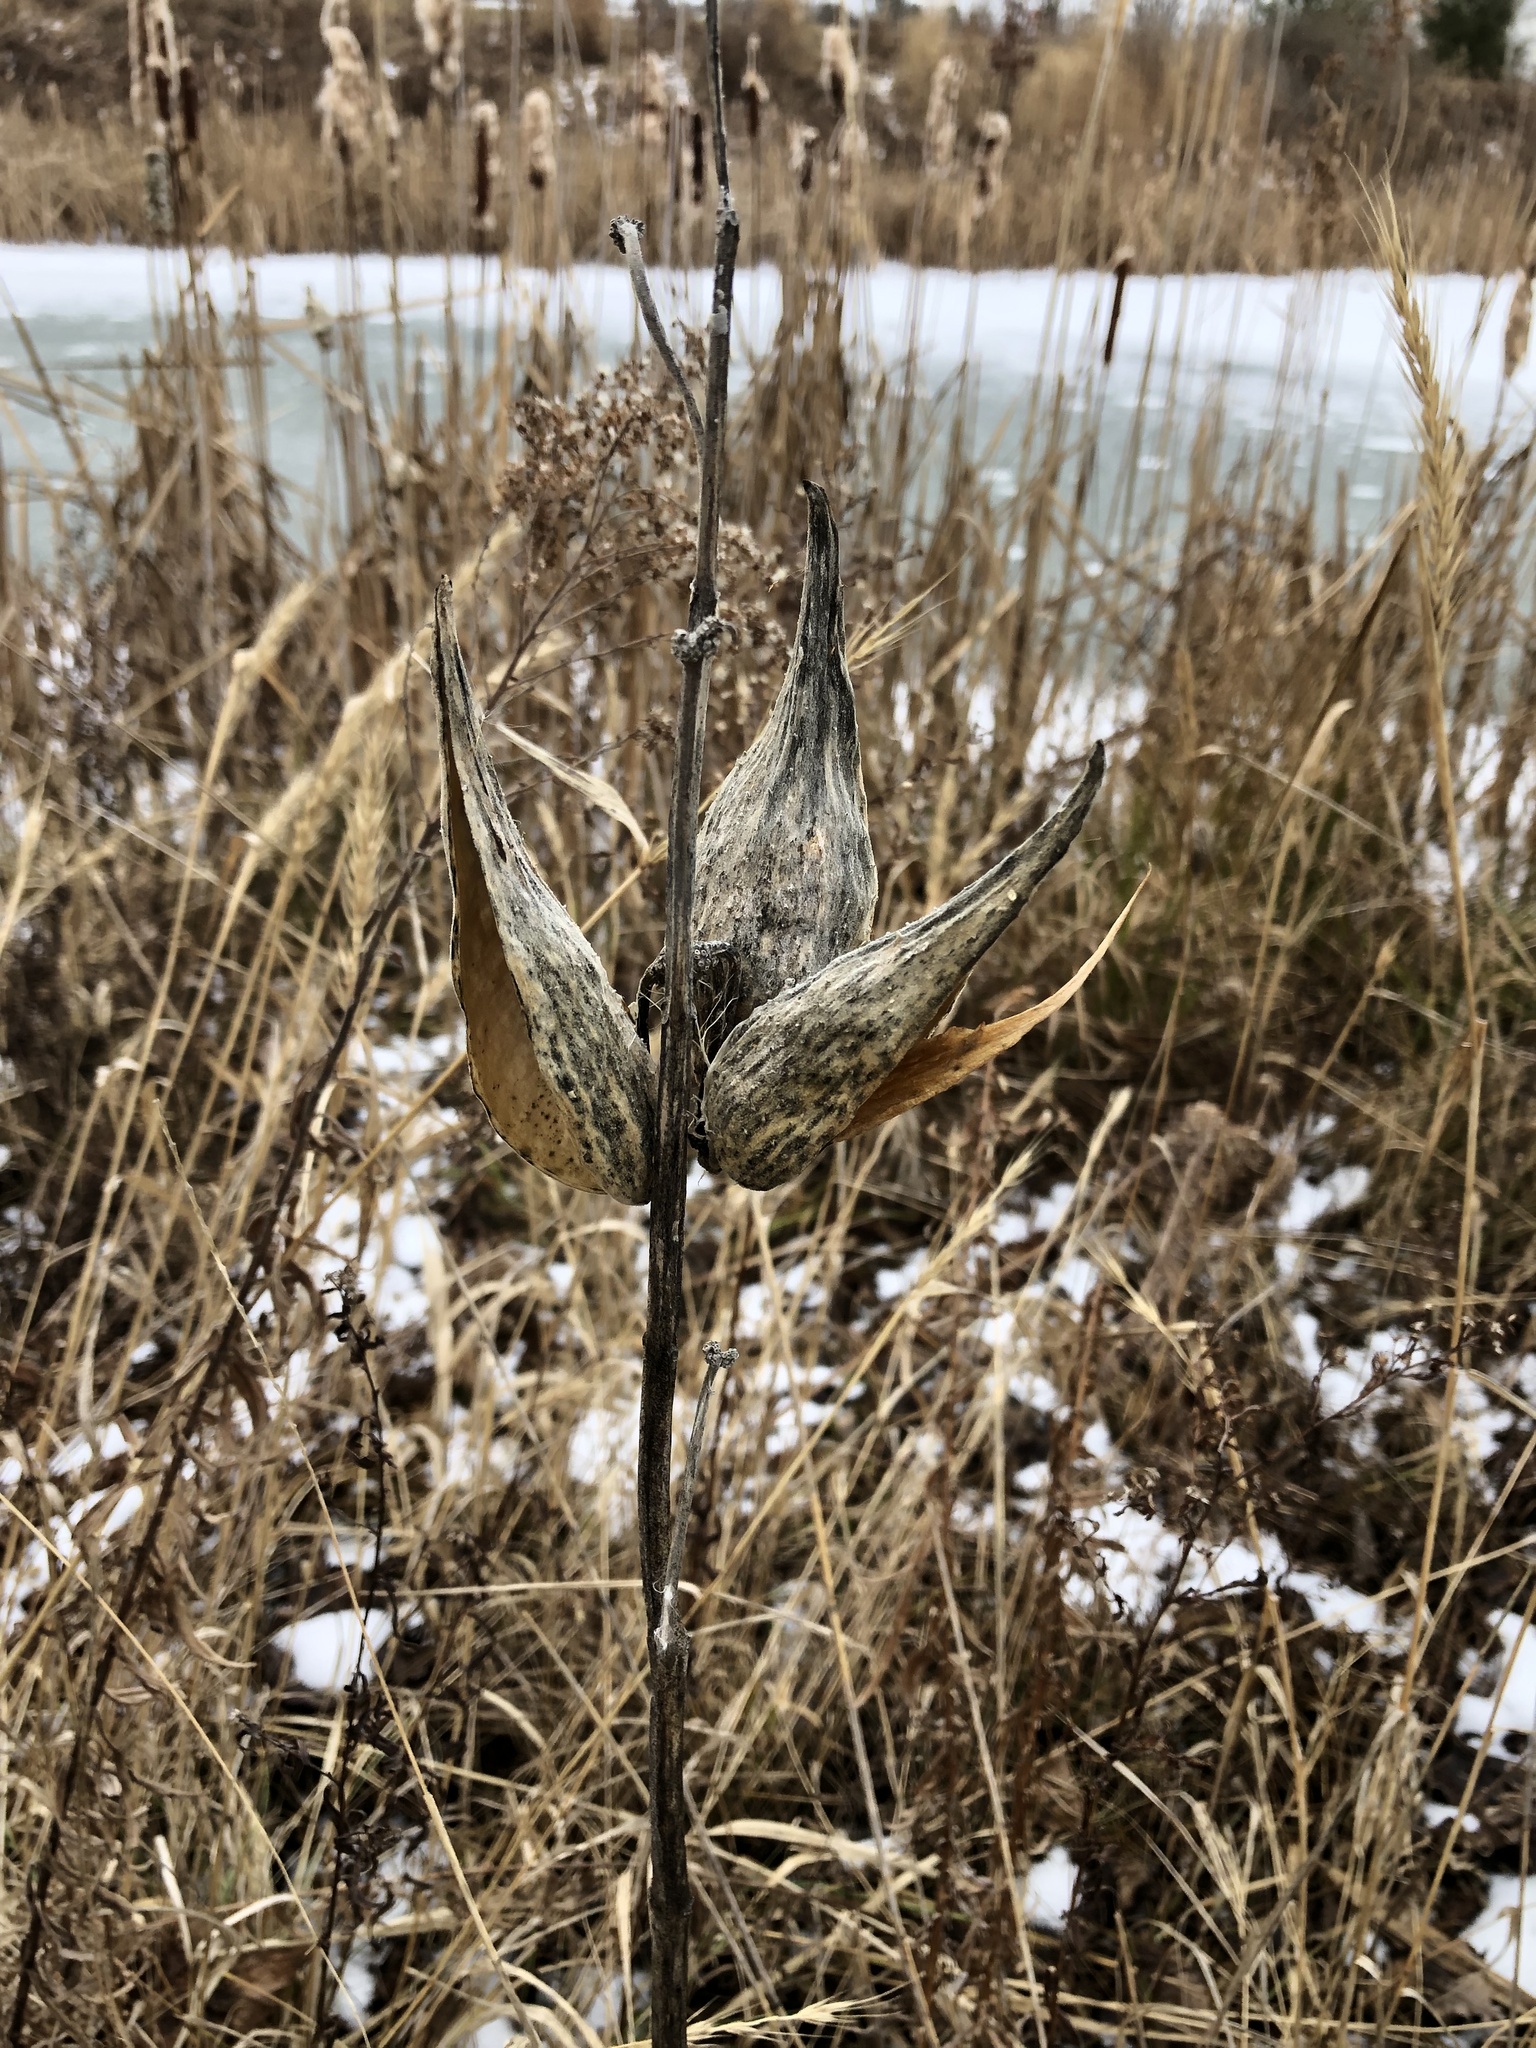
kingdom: Plantae
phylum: Tracheophyta
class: Magnoliopsida
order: Gentianales
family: Apocynaceae
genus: Asclepias
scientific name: Asclepias syriaca
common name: Common milkweed
